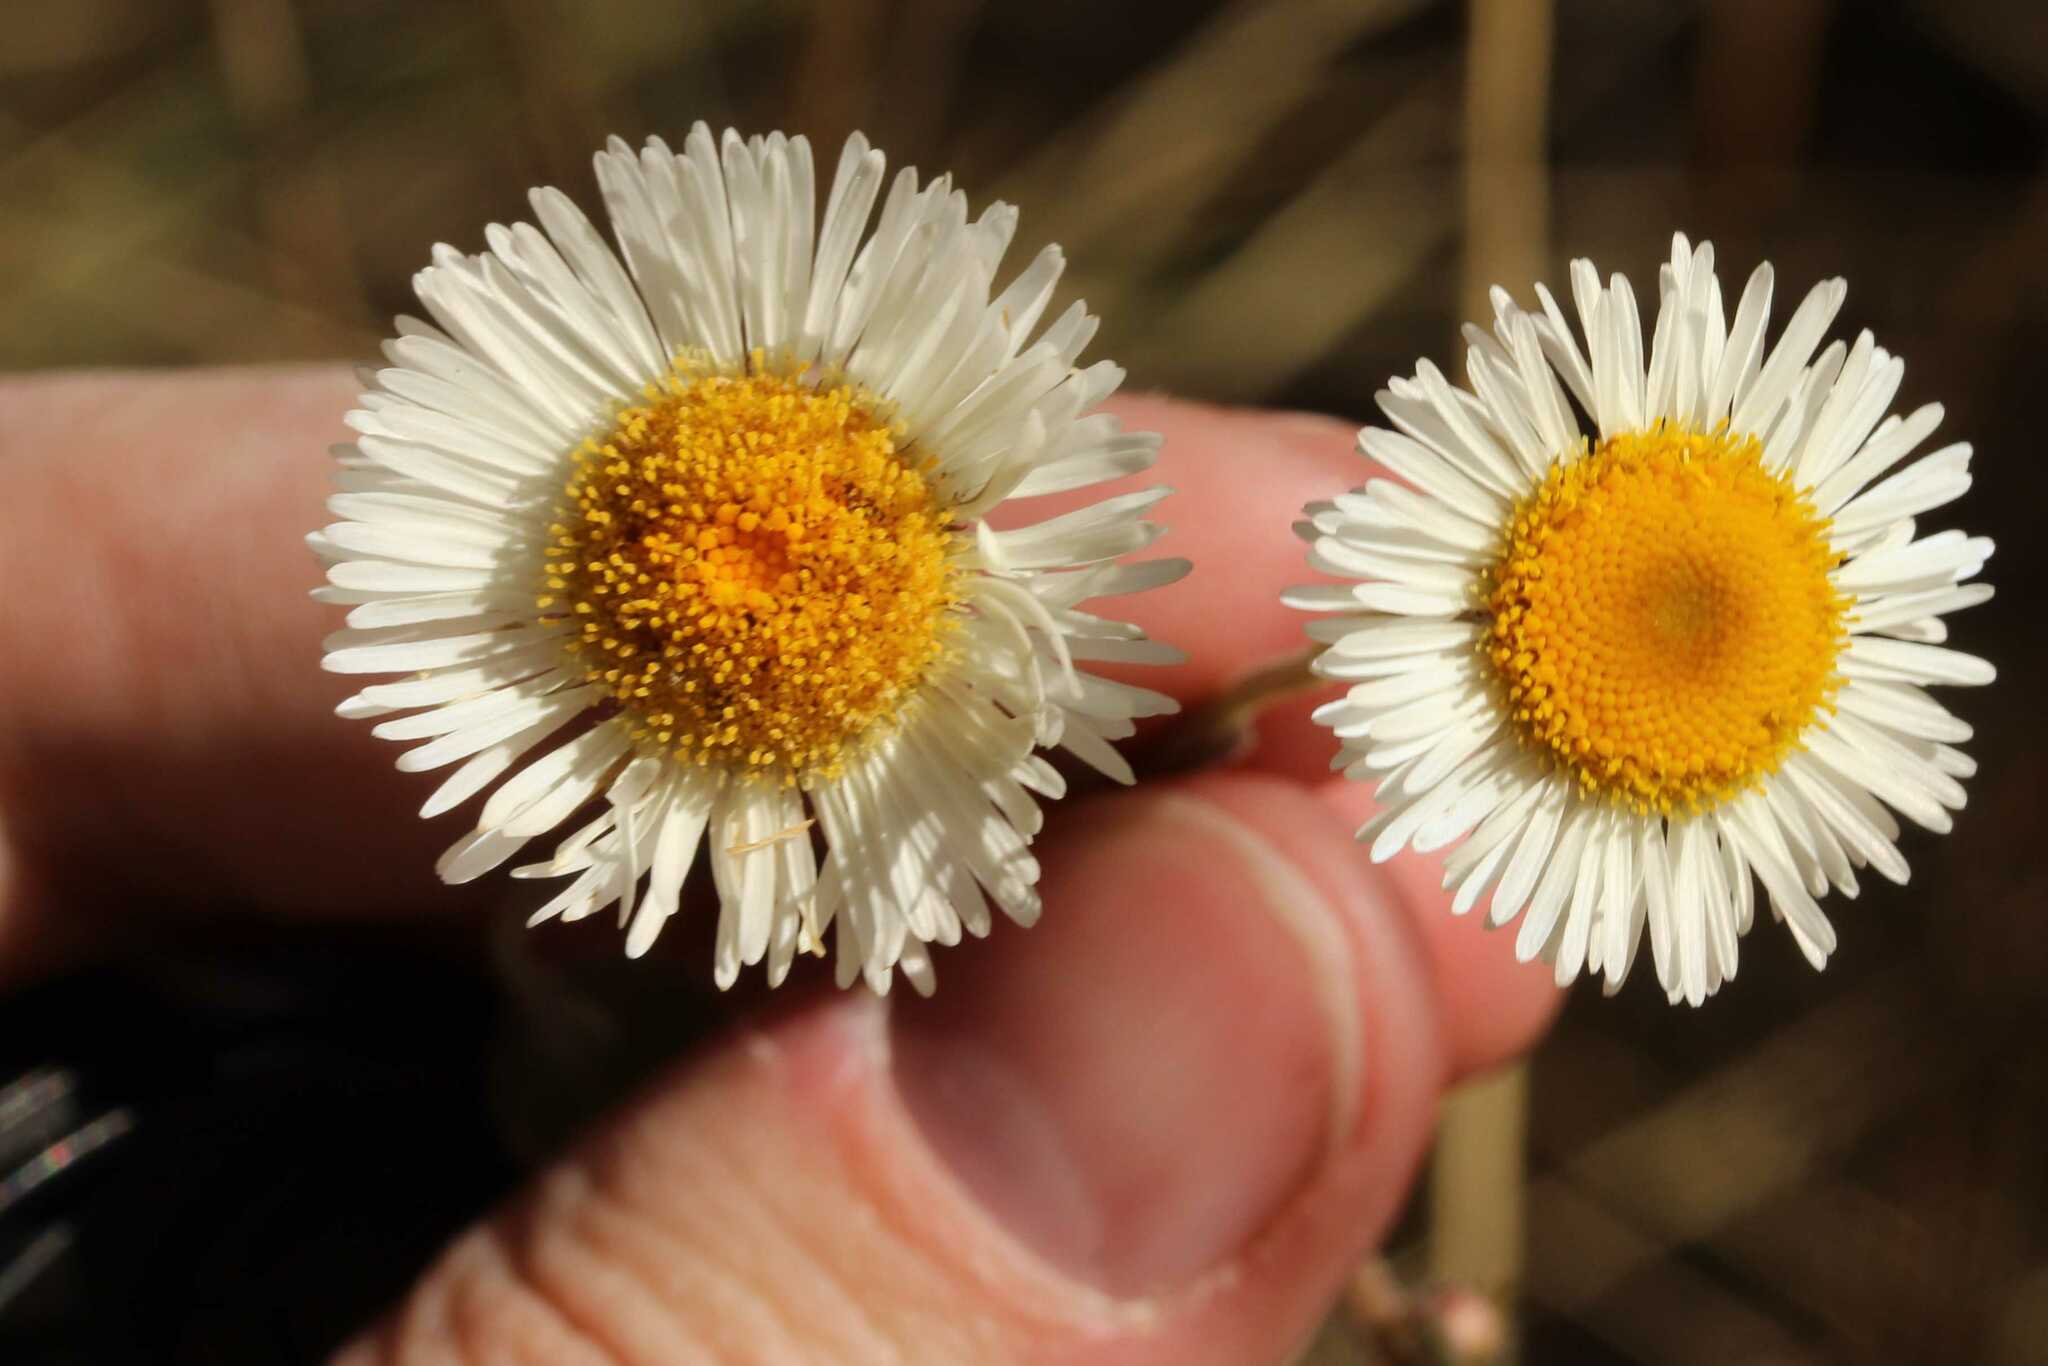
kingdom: Plantae
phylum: Tracheophyta
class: Magnoliopsida
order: Asterales
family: Asteraceae
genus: Erigeron
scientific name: Erigeron longipes
